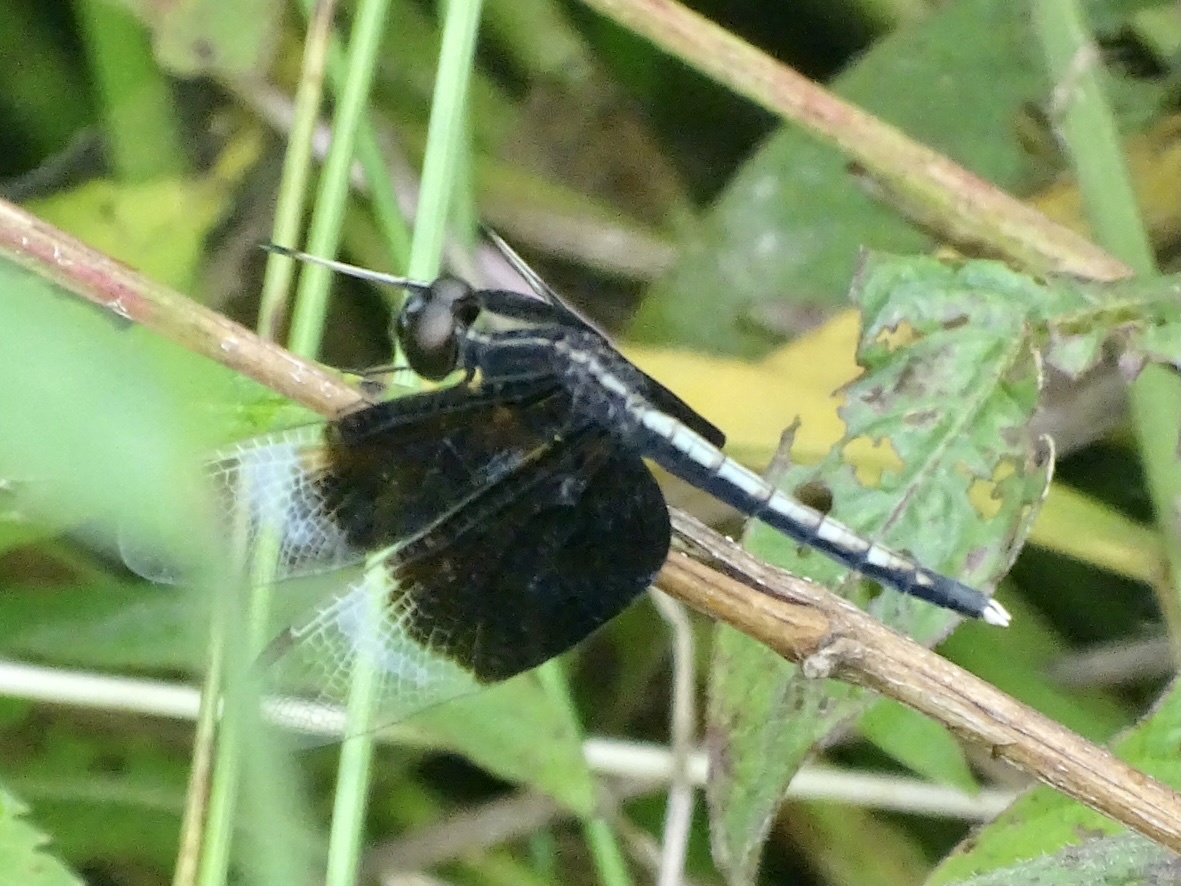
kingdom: Animalia
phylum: Arthropoda
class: Insecta
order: Odonata
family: Libellulidae
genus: Neurothemis
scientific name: Neurothemis tullia
